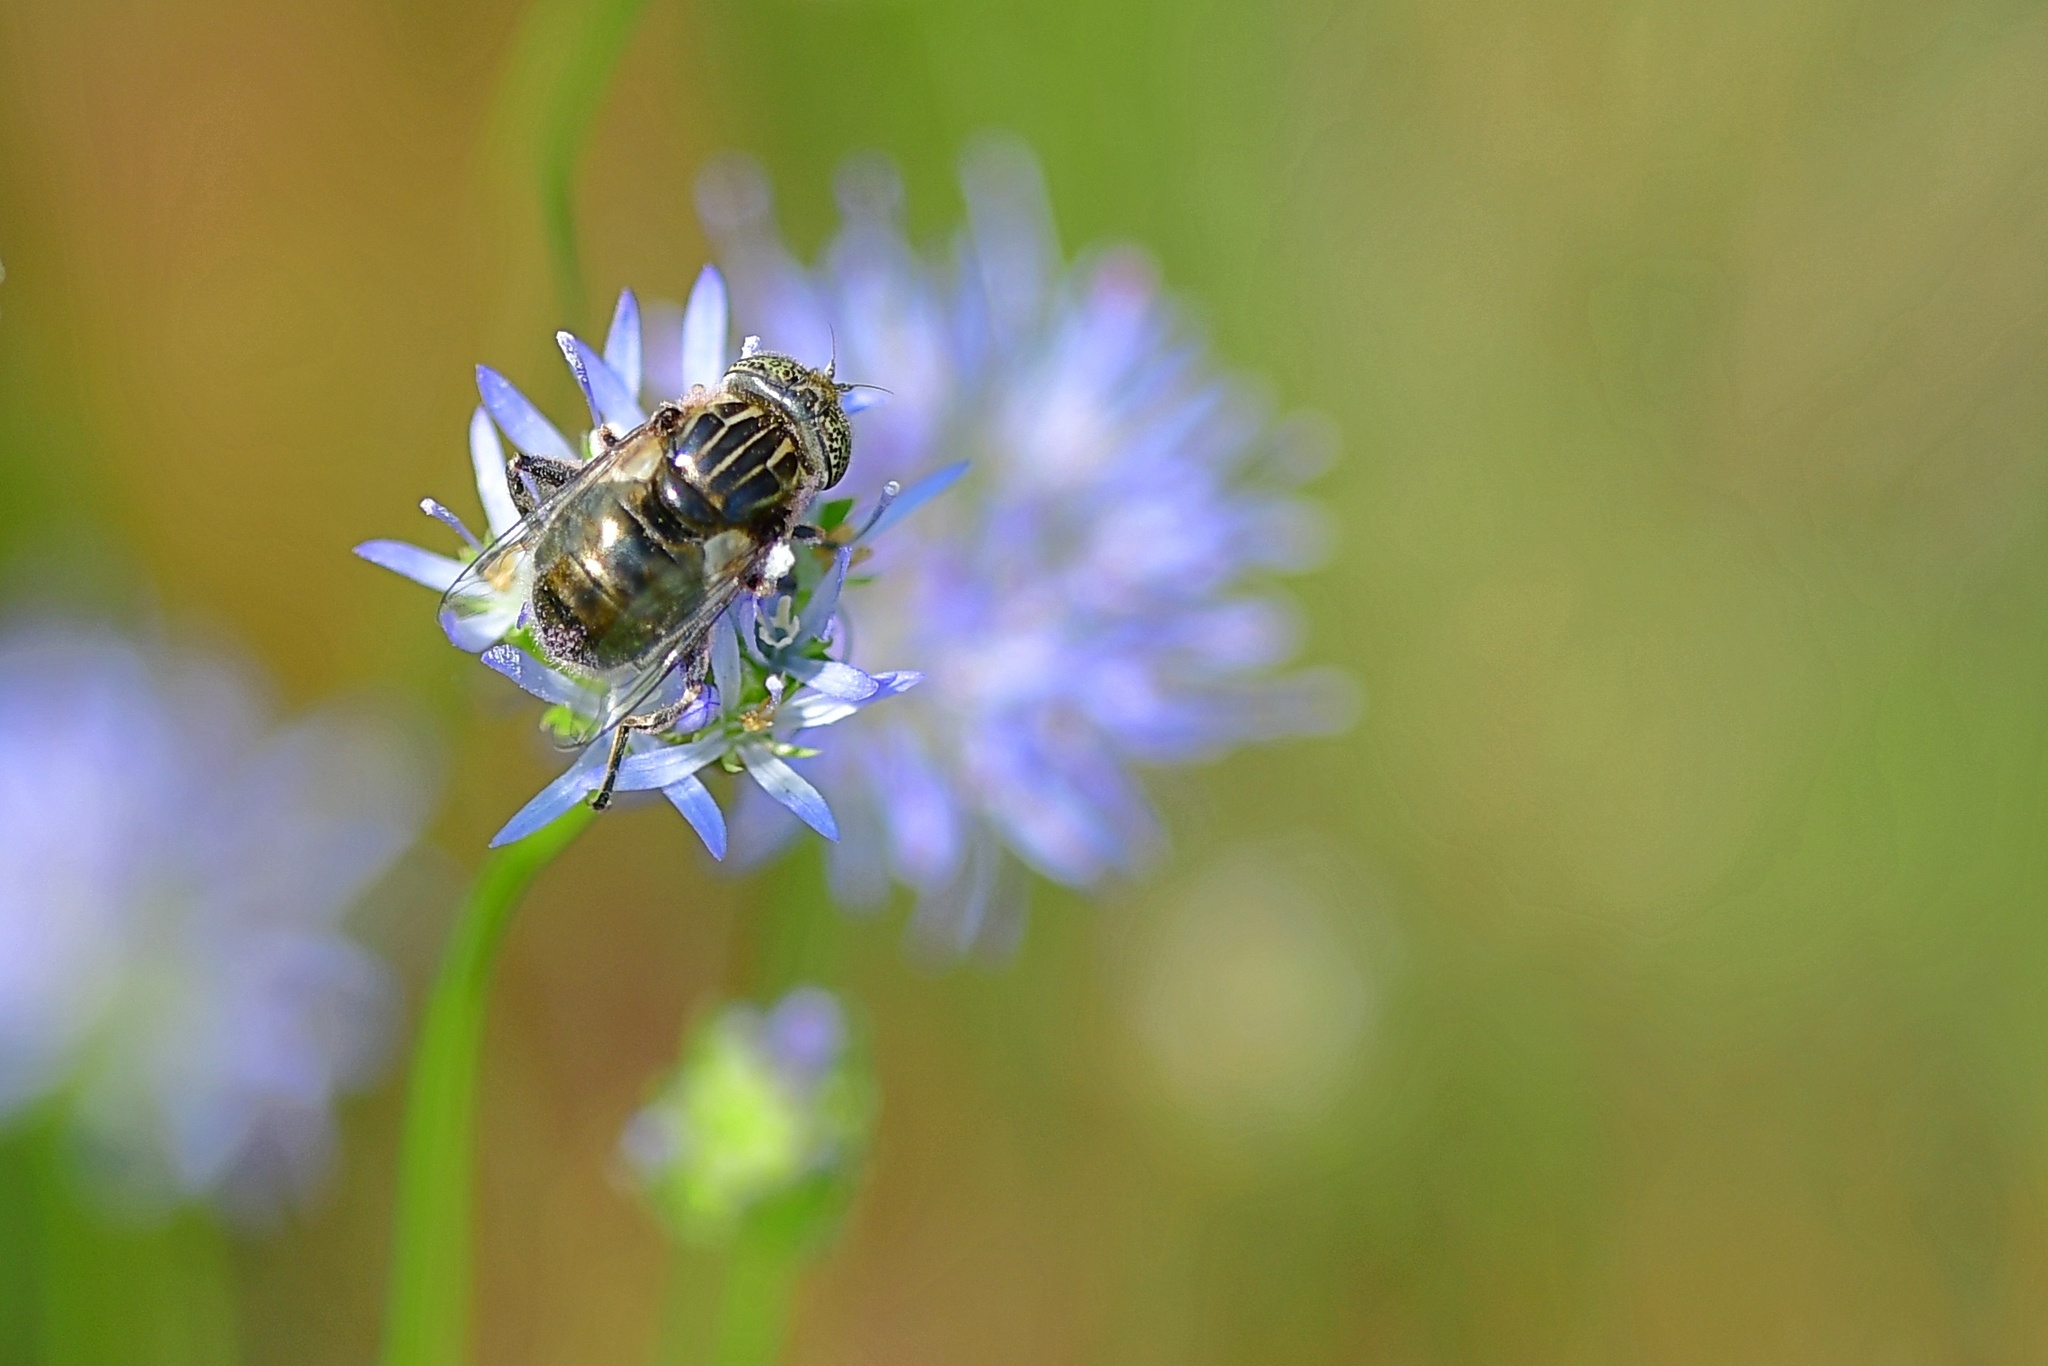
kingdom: Animalia
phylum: Arthropoda
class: Insecta
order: Diptera
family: Syrphidae
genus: Eristalinus
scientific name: Eristalinus sepulchralis
